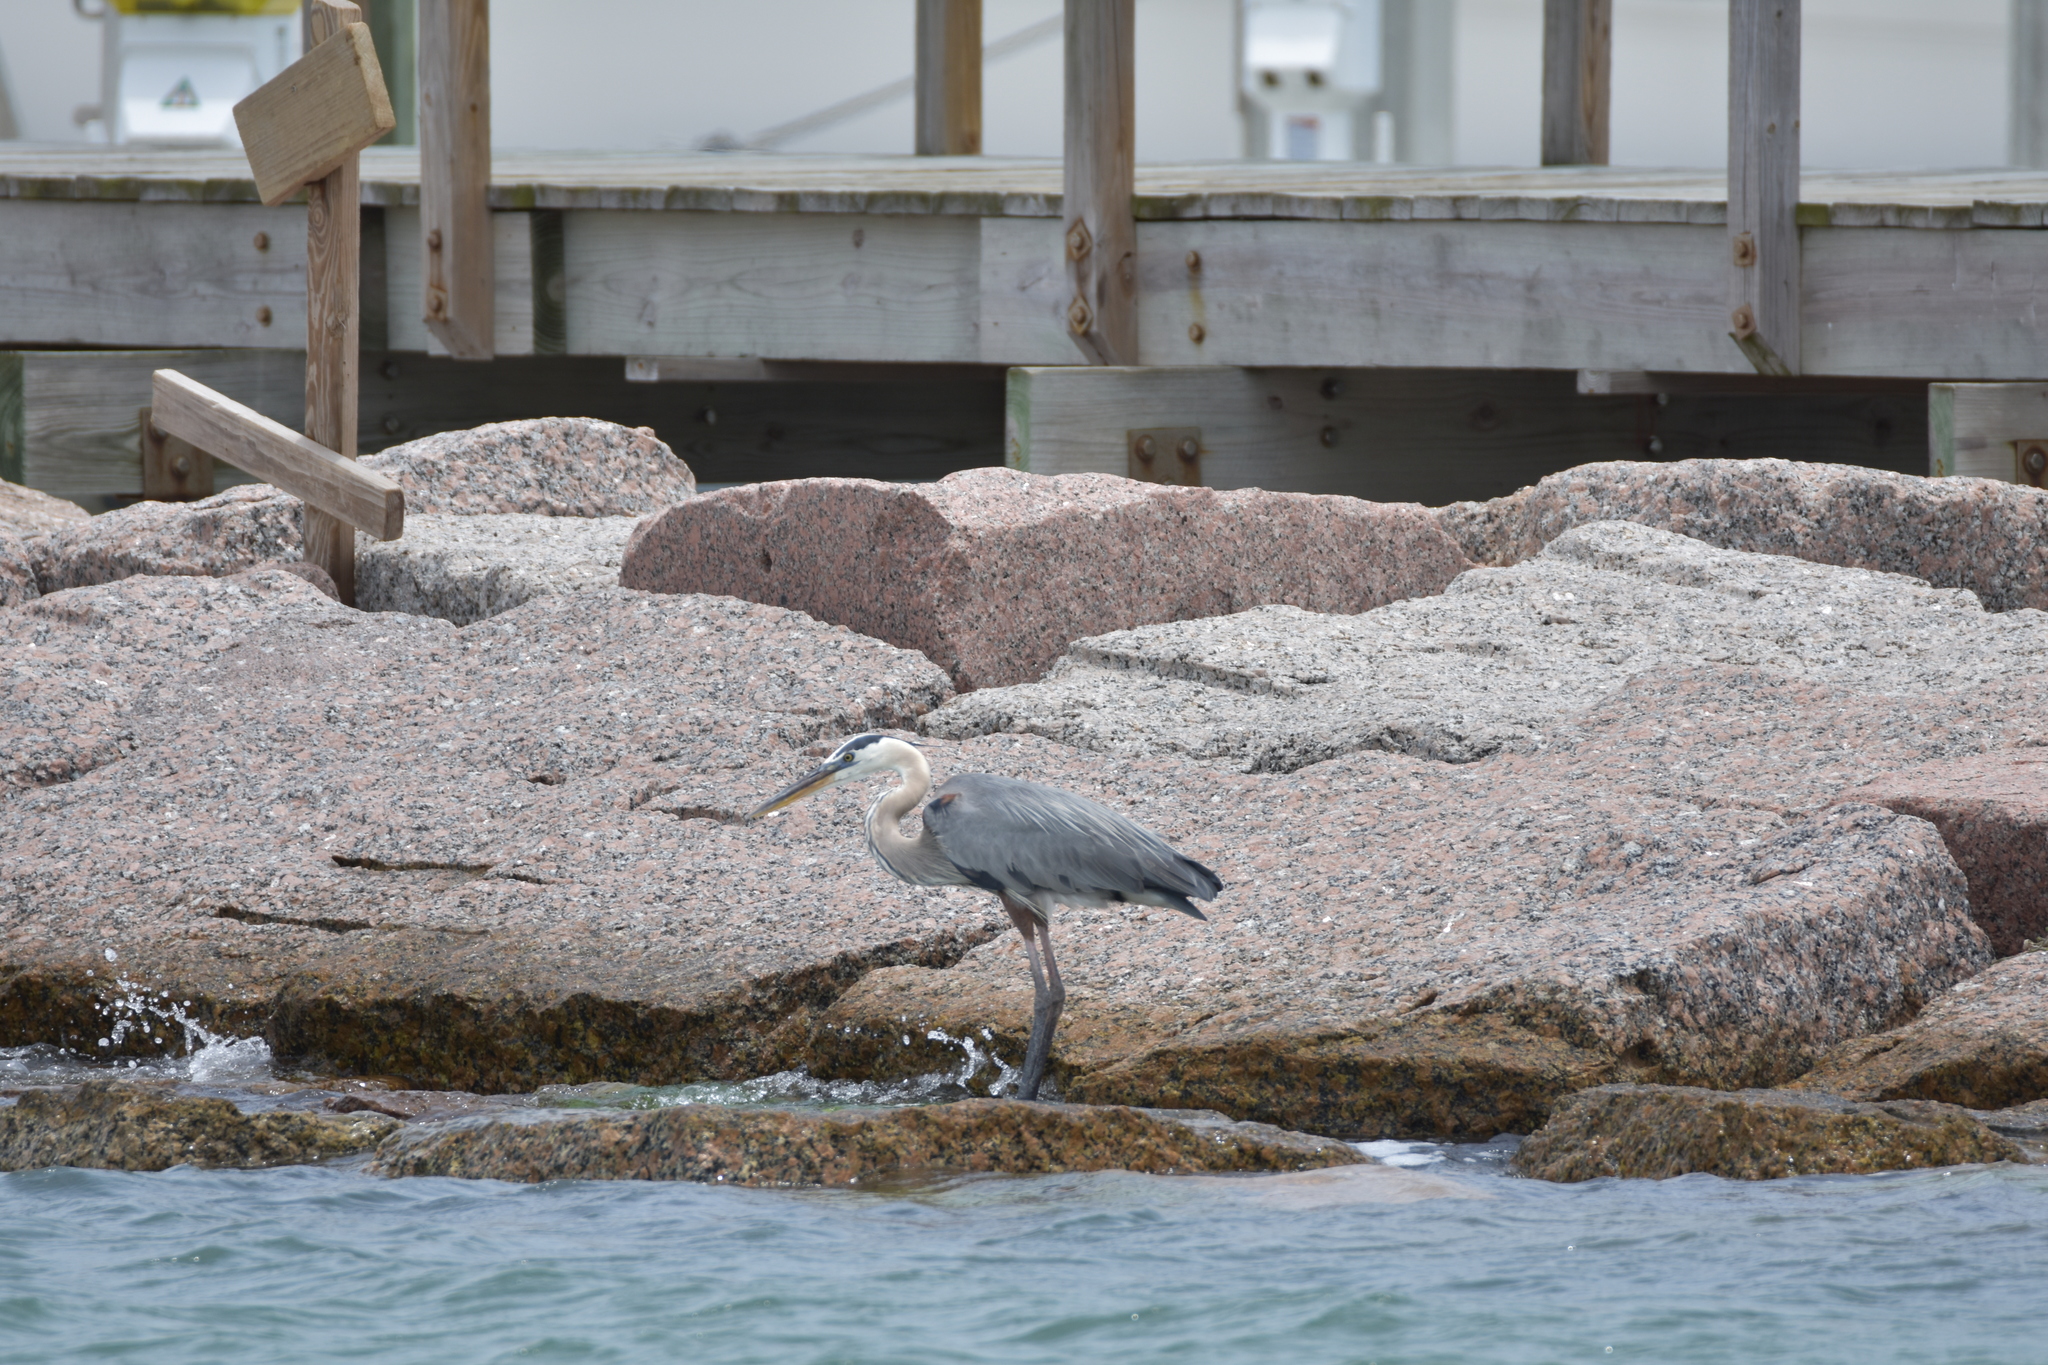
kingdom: Animalia
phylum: Chordata
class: Aves
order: Pelecaniformes
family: Ardeidae
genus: Ardea
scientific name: Ardea herodias
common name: Great blue heron
